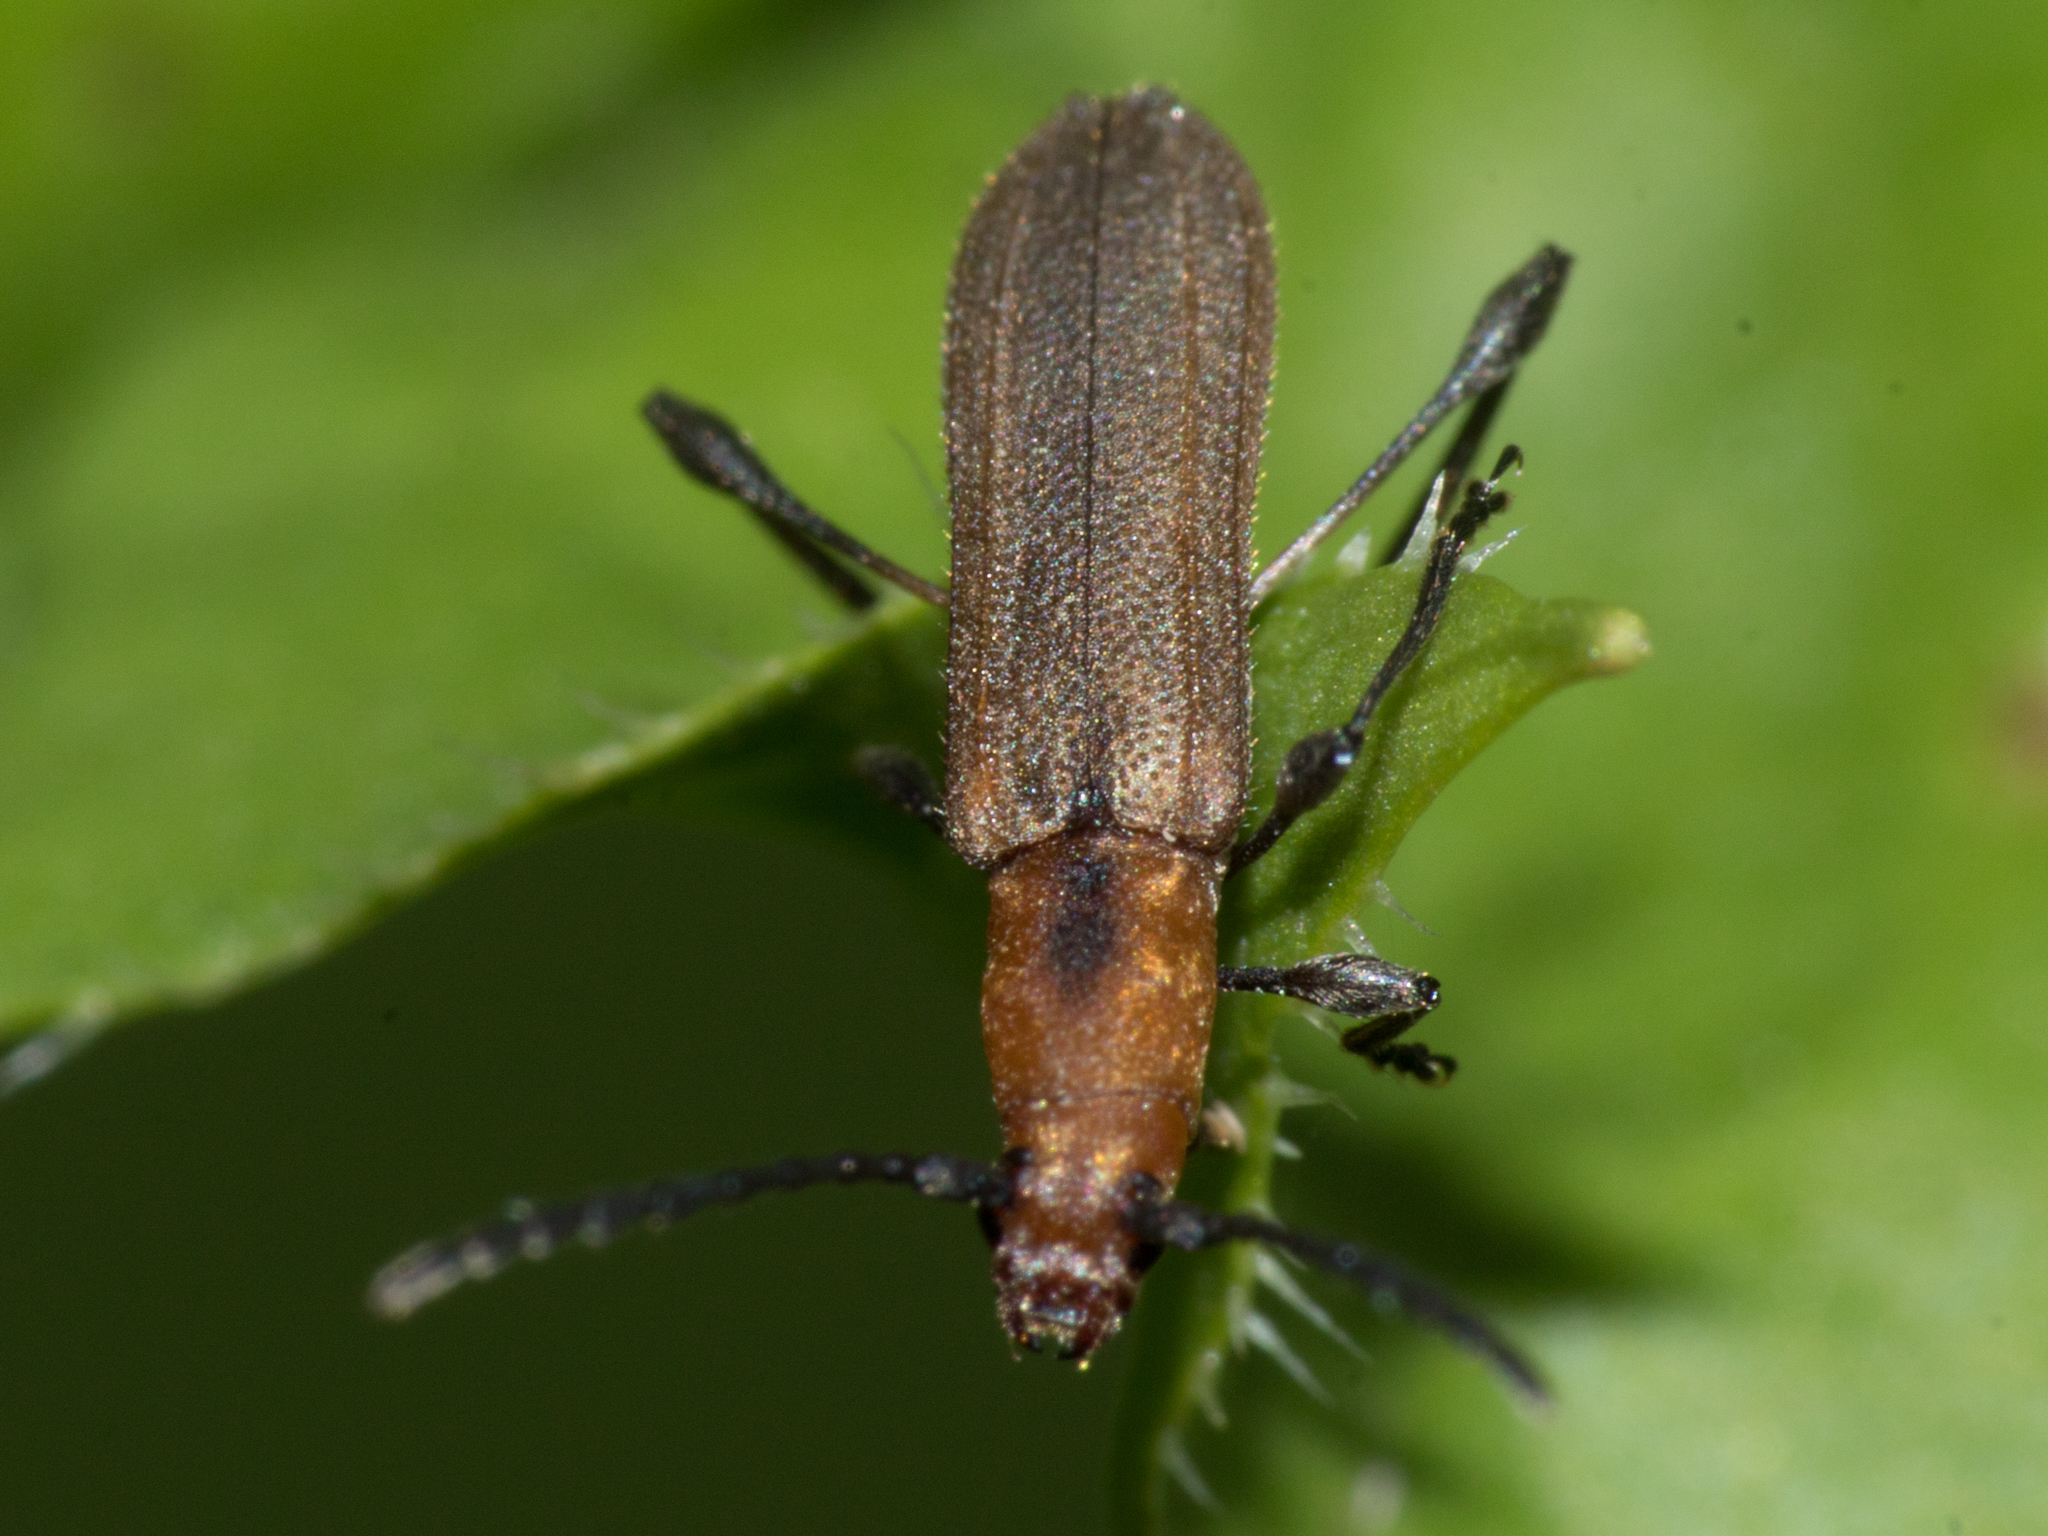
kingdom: Animalia
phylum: Arthropoda
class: Insecta
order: Coleoptera
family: Cerambycidae
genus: Dihammaphora
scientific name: Dihammaphora nigrovittata
